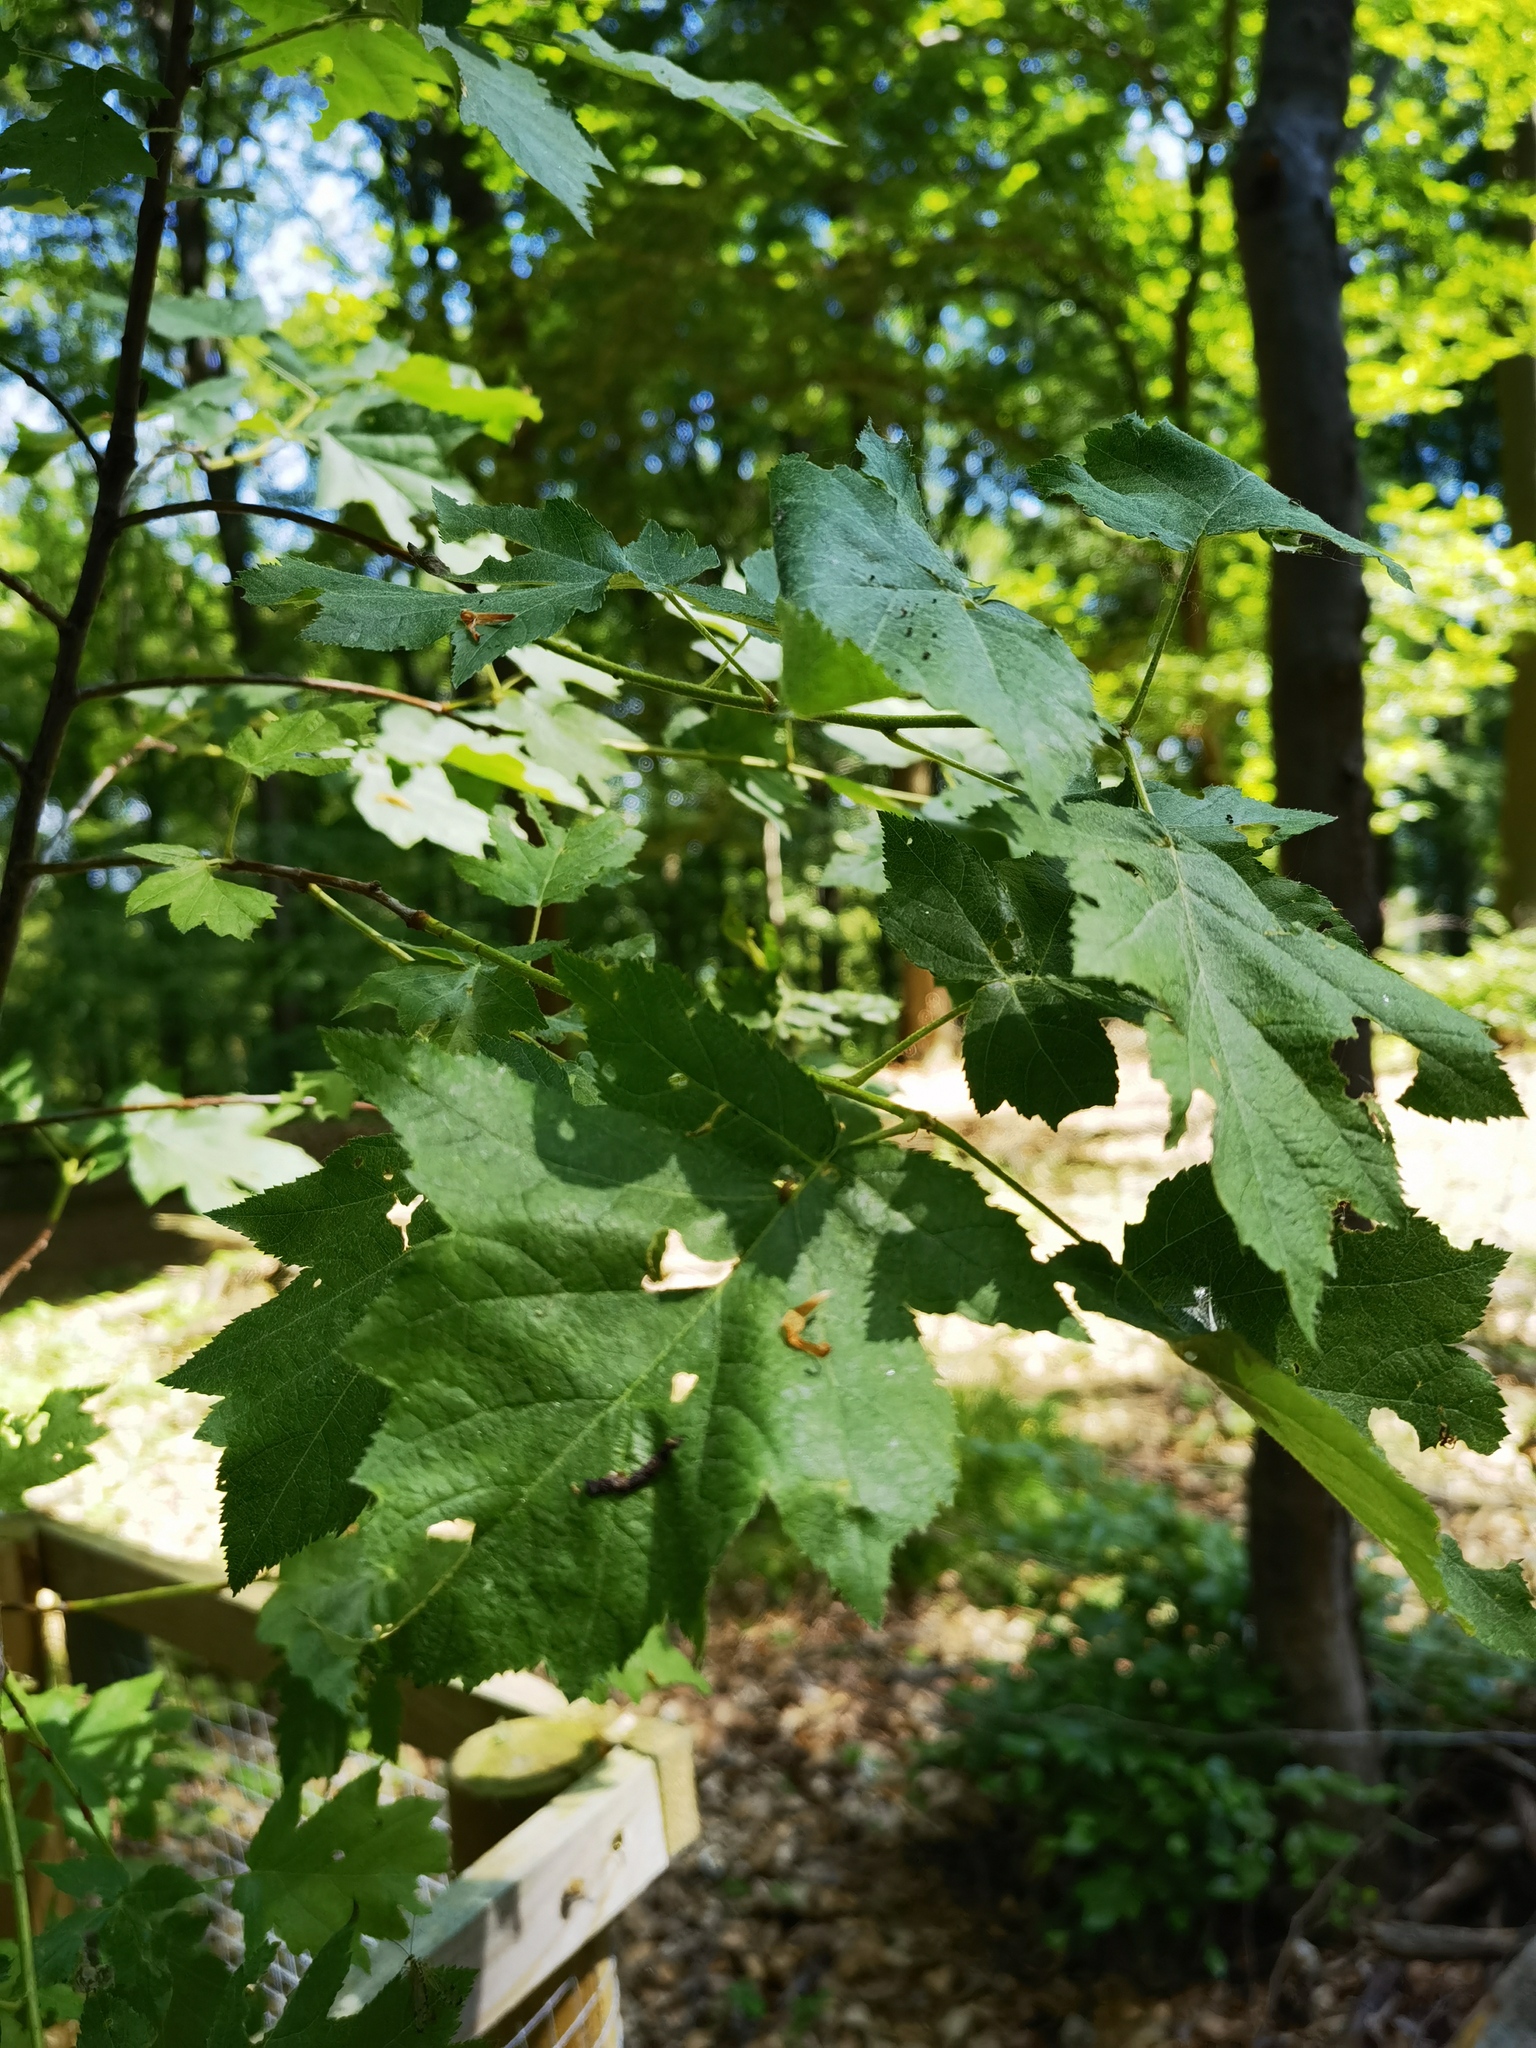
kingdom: Plantae
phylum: Tracheophyta
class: Magnoliopsida
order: Rosales
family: Rosaceae
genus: Torminalis
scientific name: Torminalis glaberrima
